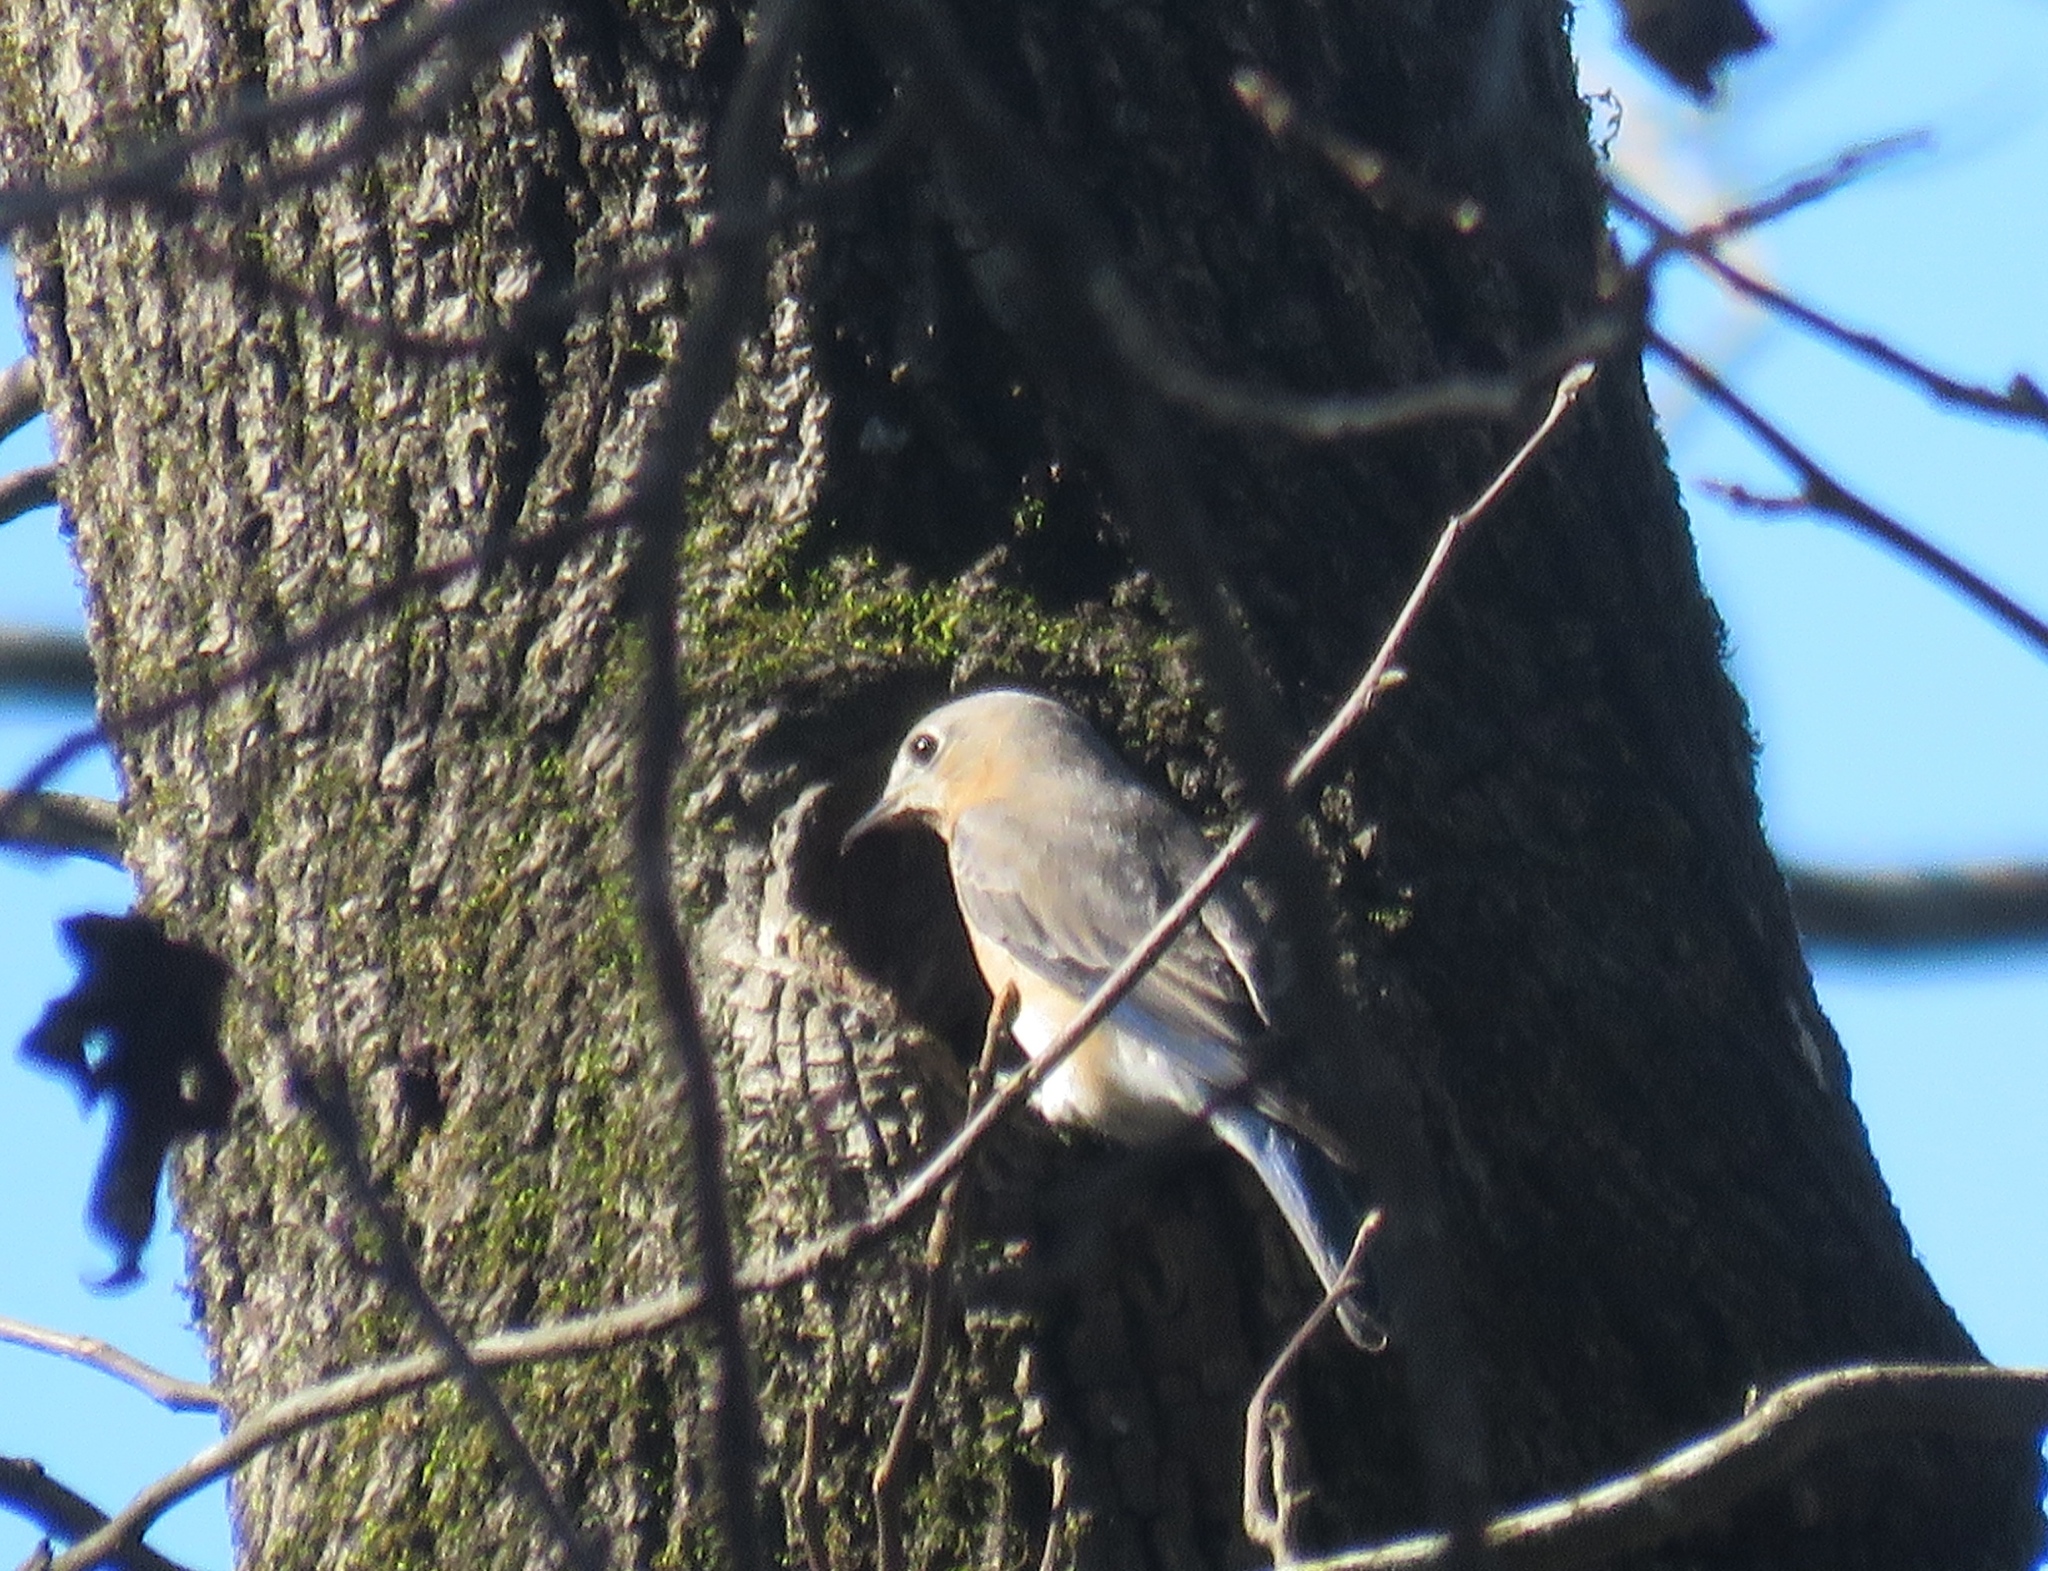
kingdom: Animalia
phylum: Chordata
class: Aves
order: Passeriformes
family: Turdidae
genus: Sialia
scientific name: Sialia sialis
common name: Eastern bluebird
